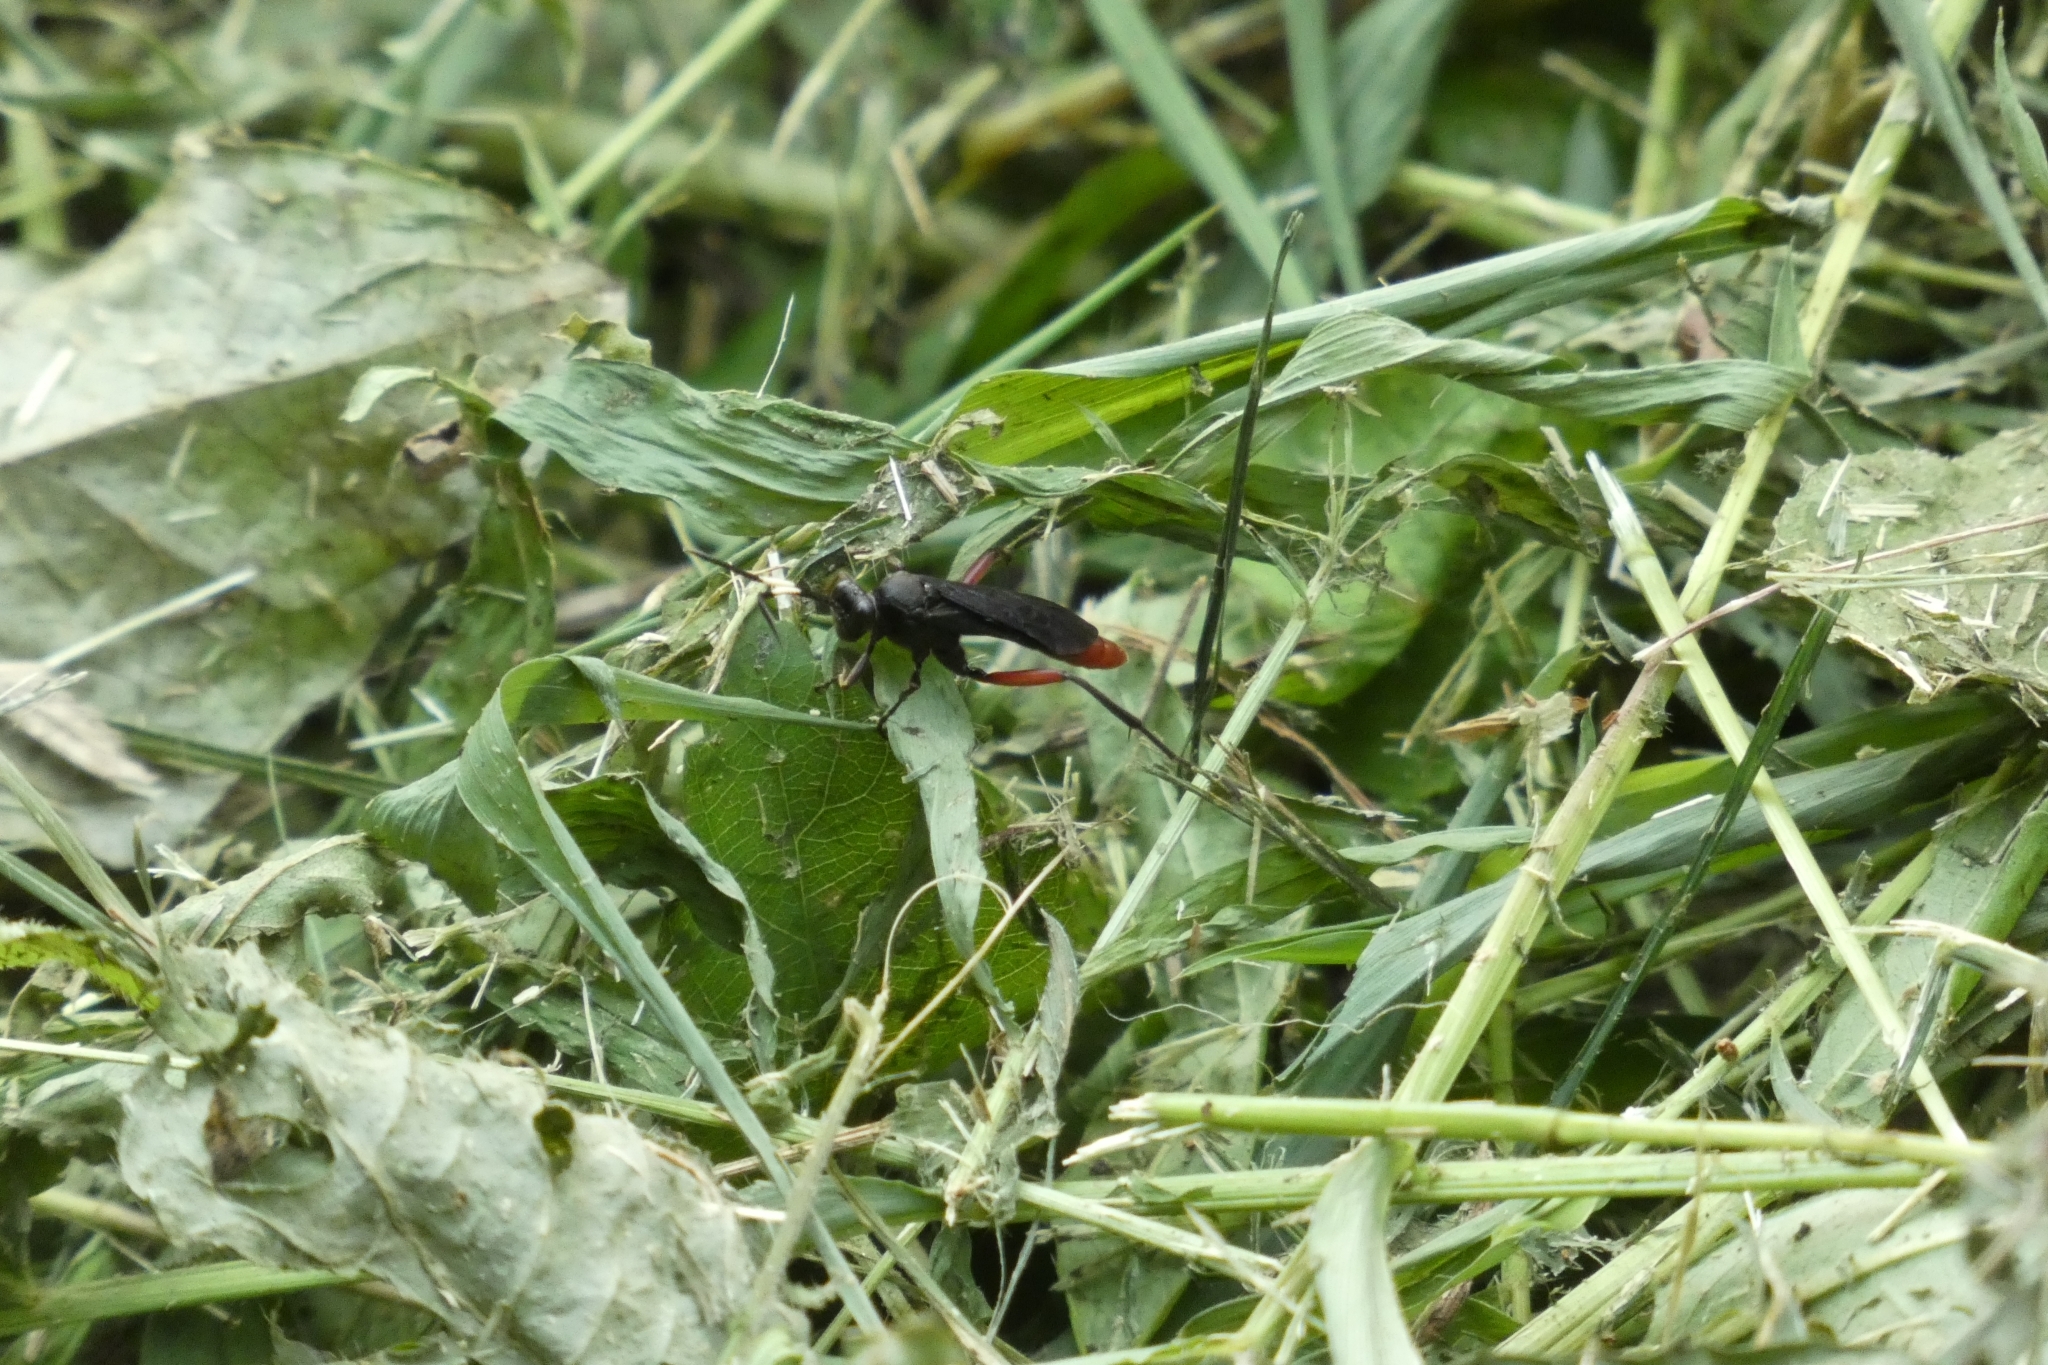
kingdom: Animalia
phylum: Arthropoda
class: Insecta
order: Hymenoptera
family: Ichneumonidae
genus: Limonethe
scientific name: Limonethe maurator
